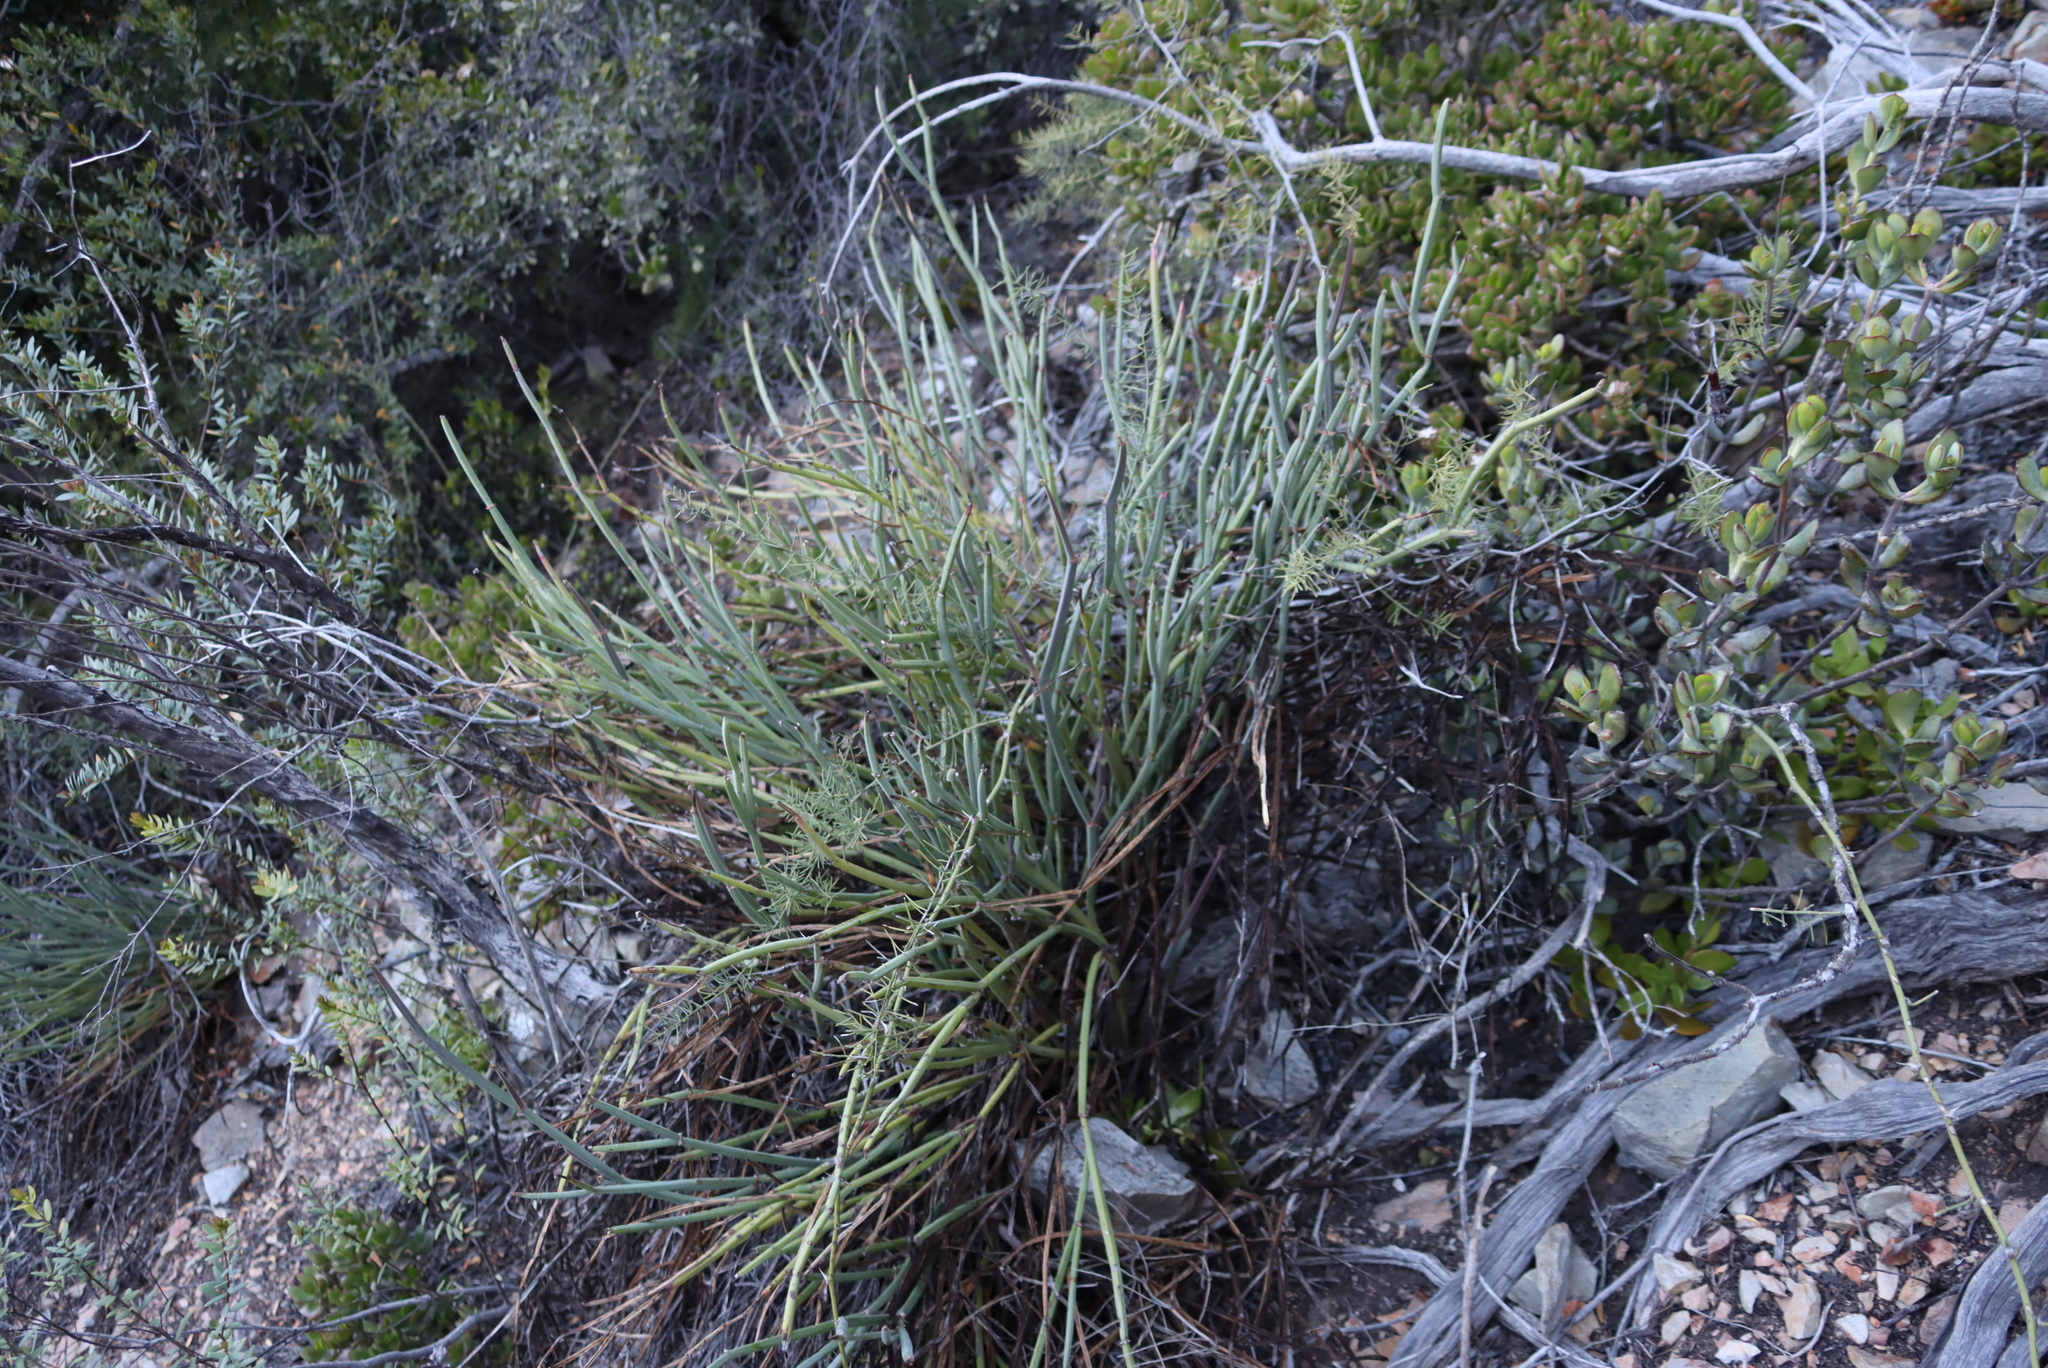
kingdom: Plantae
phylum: Tracheophyta
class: Magnoliopsida
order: Geraniales
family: Geraniaceae
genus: Pelargonium
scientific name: Pelargonium tetragonum
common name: Square-stack crane's-bill
